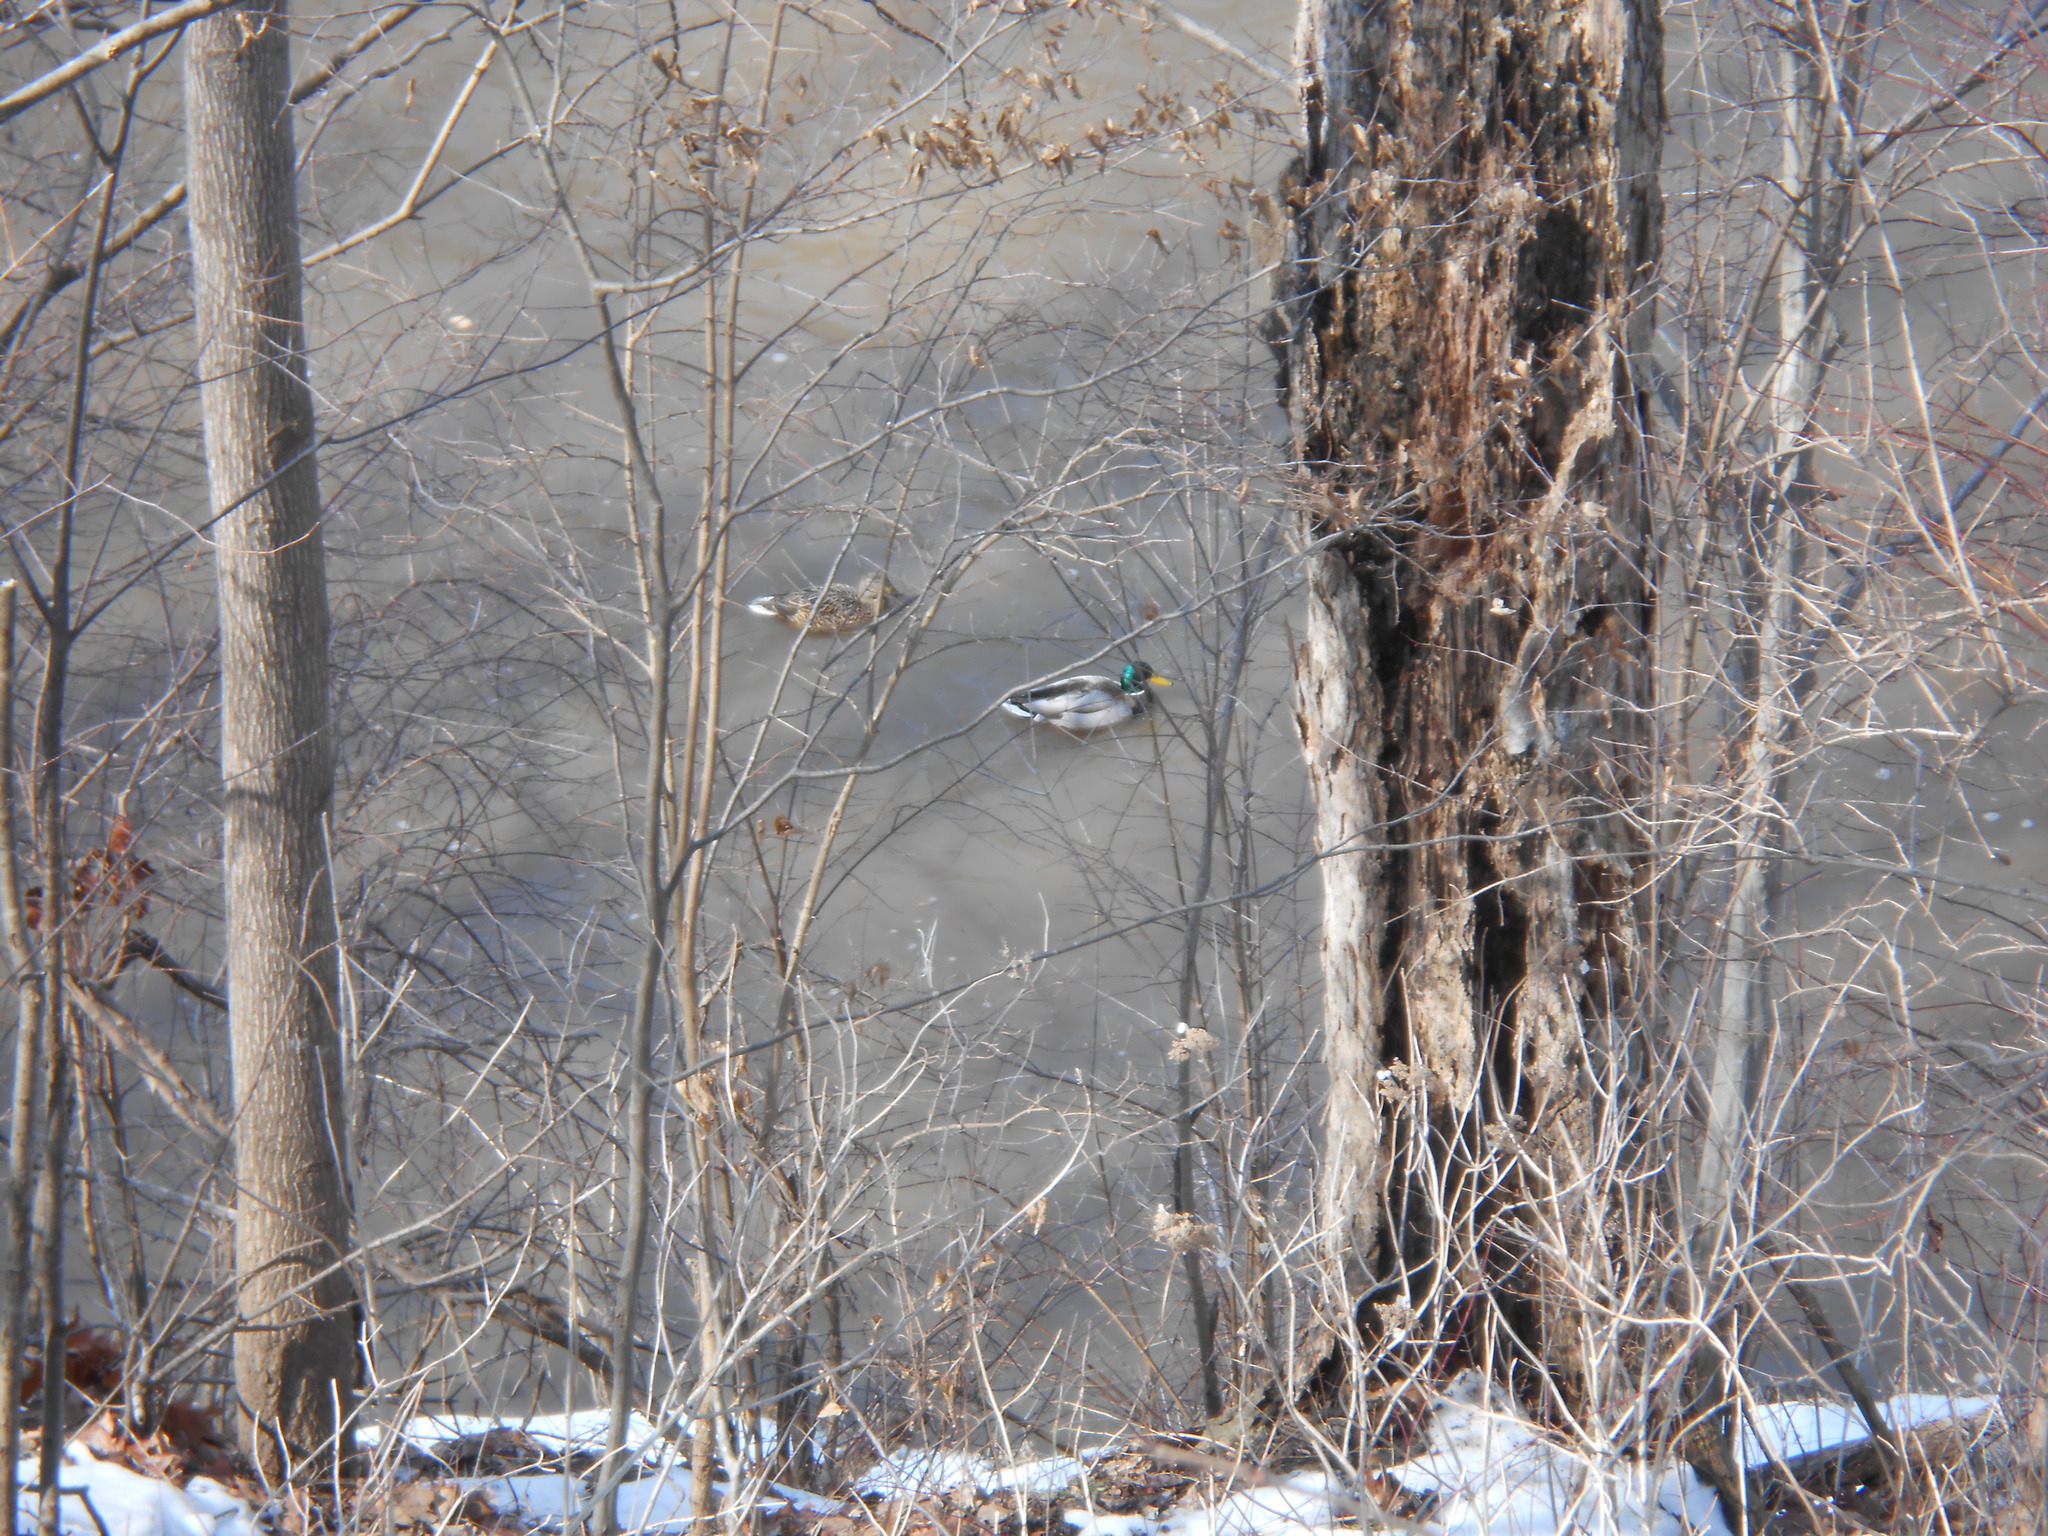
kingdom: Animalia
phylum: Chordata
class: Aves
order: Anseriformes
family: Anatidae
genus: Anas
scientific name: Anas platyrhynchos
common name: Mallard
